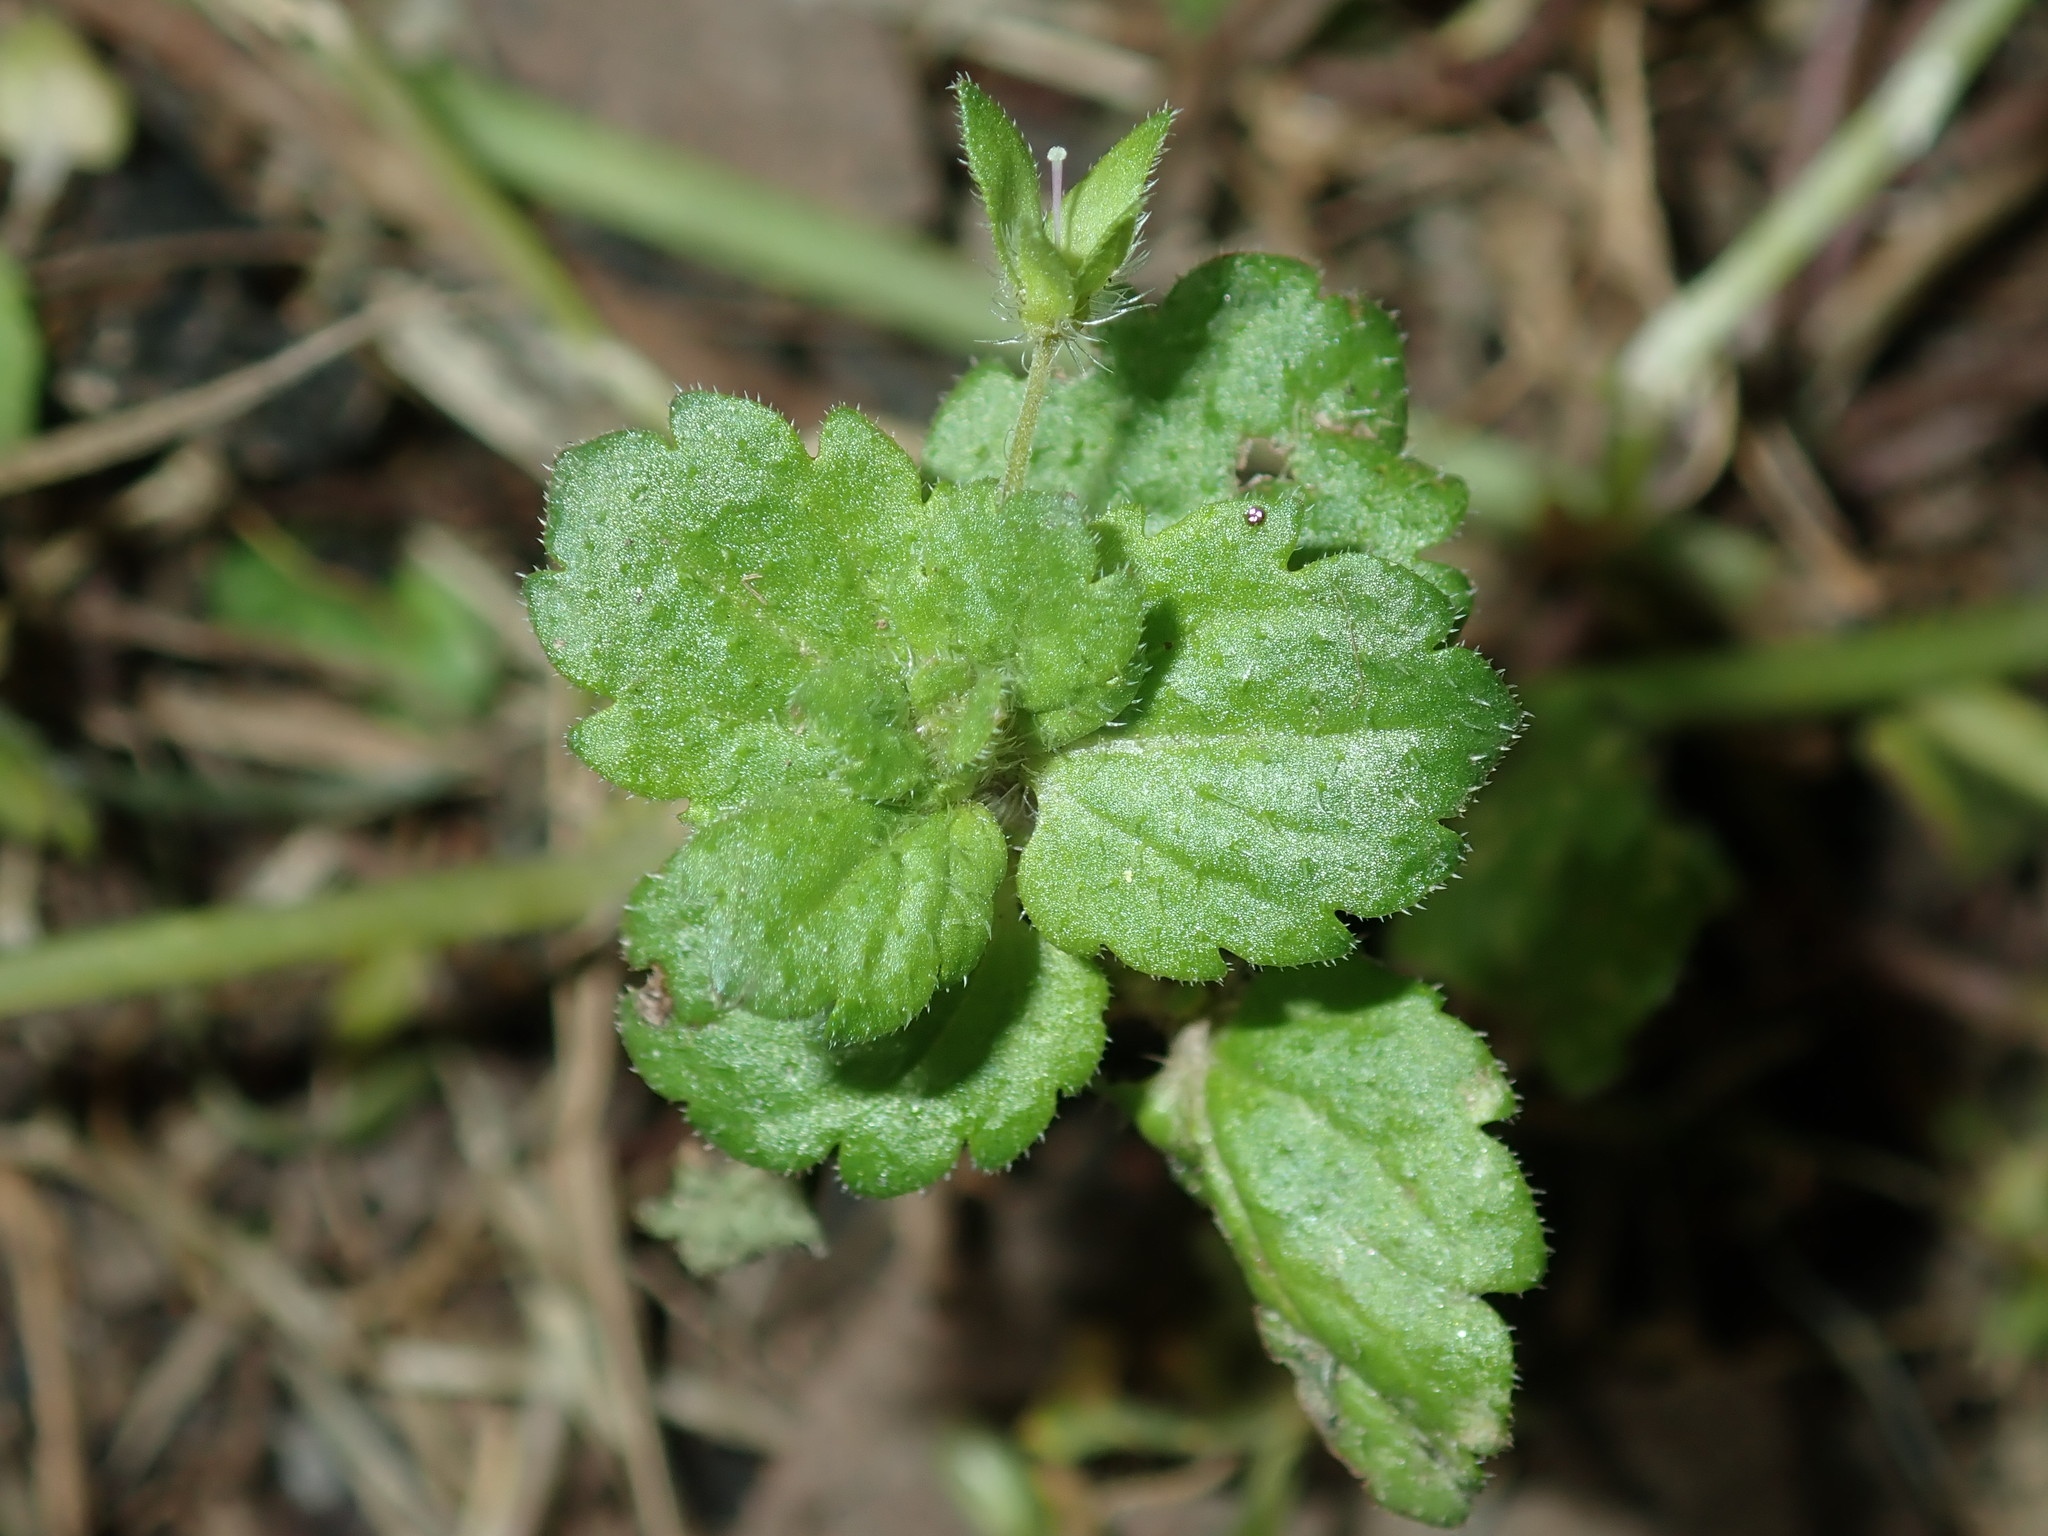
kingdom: Plantae
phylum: Tracheophyta
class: Magnoliopsida
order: Lamiales
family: Plantaginaceae
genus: Veronica
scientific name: Veronica persica
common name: Common field-speedwell
